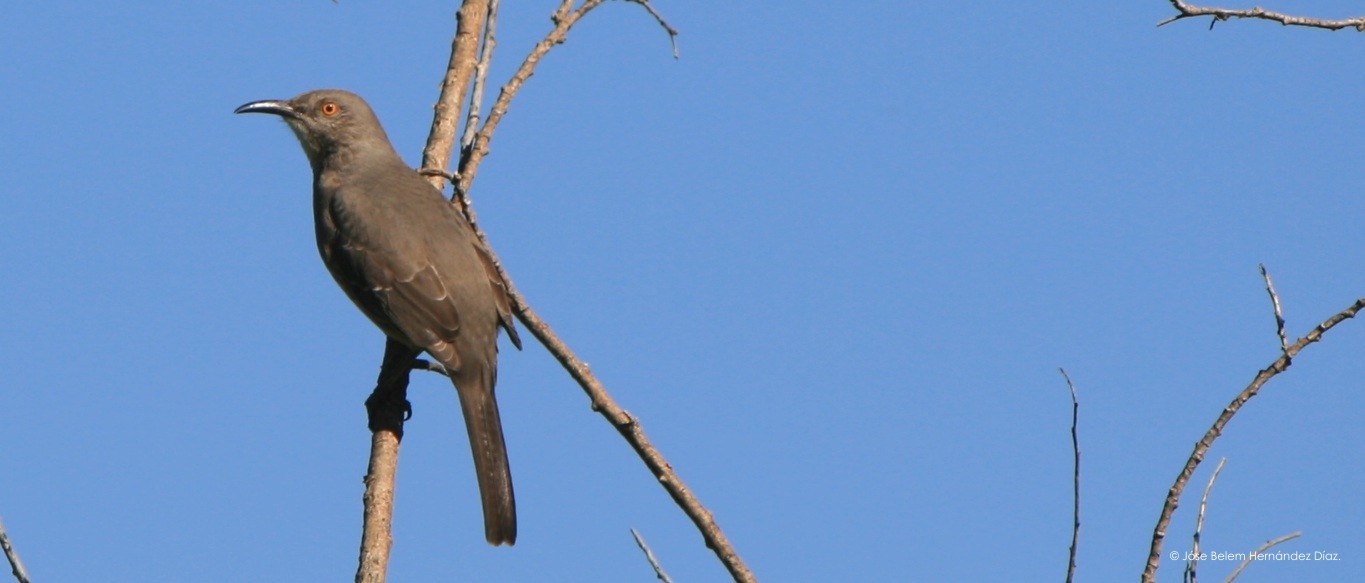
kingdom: Animalia
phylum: Chordata
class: Aves
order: Passeriformes
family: Mimidae
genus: Toxostoma
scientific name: Toxostoma curvirostre
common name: Curve-billed thrasher
